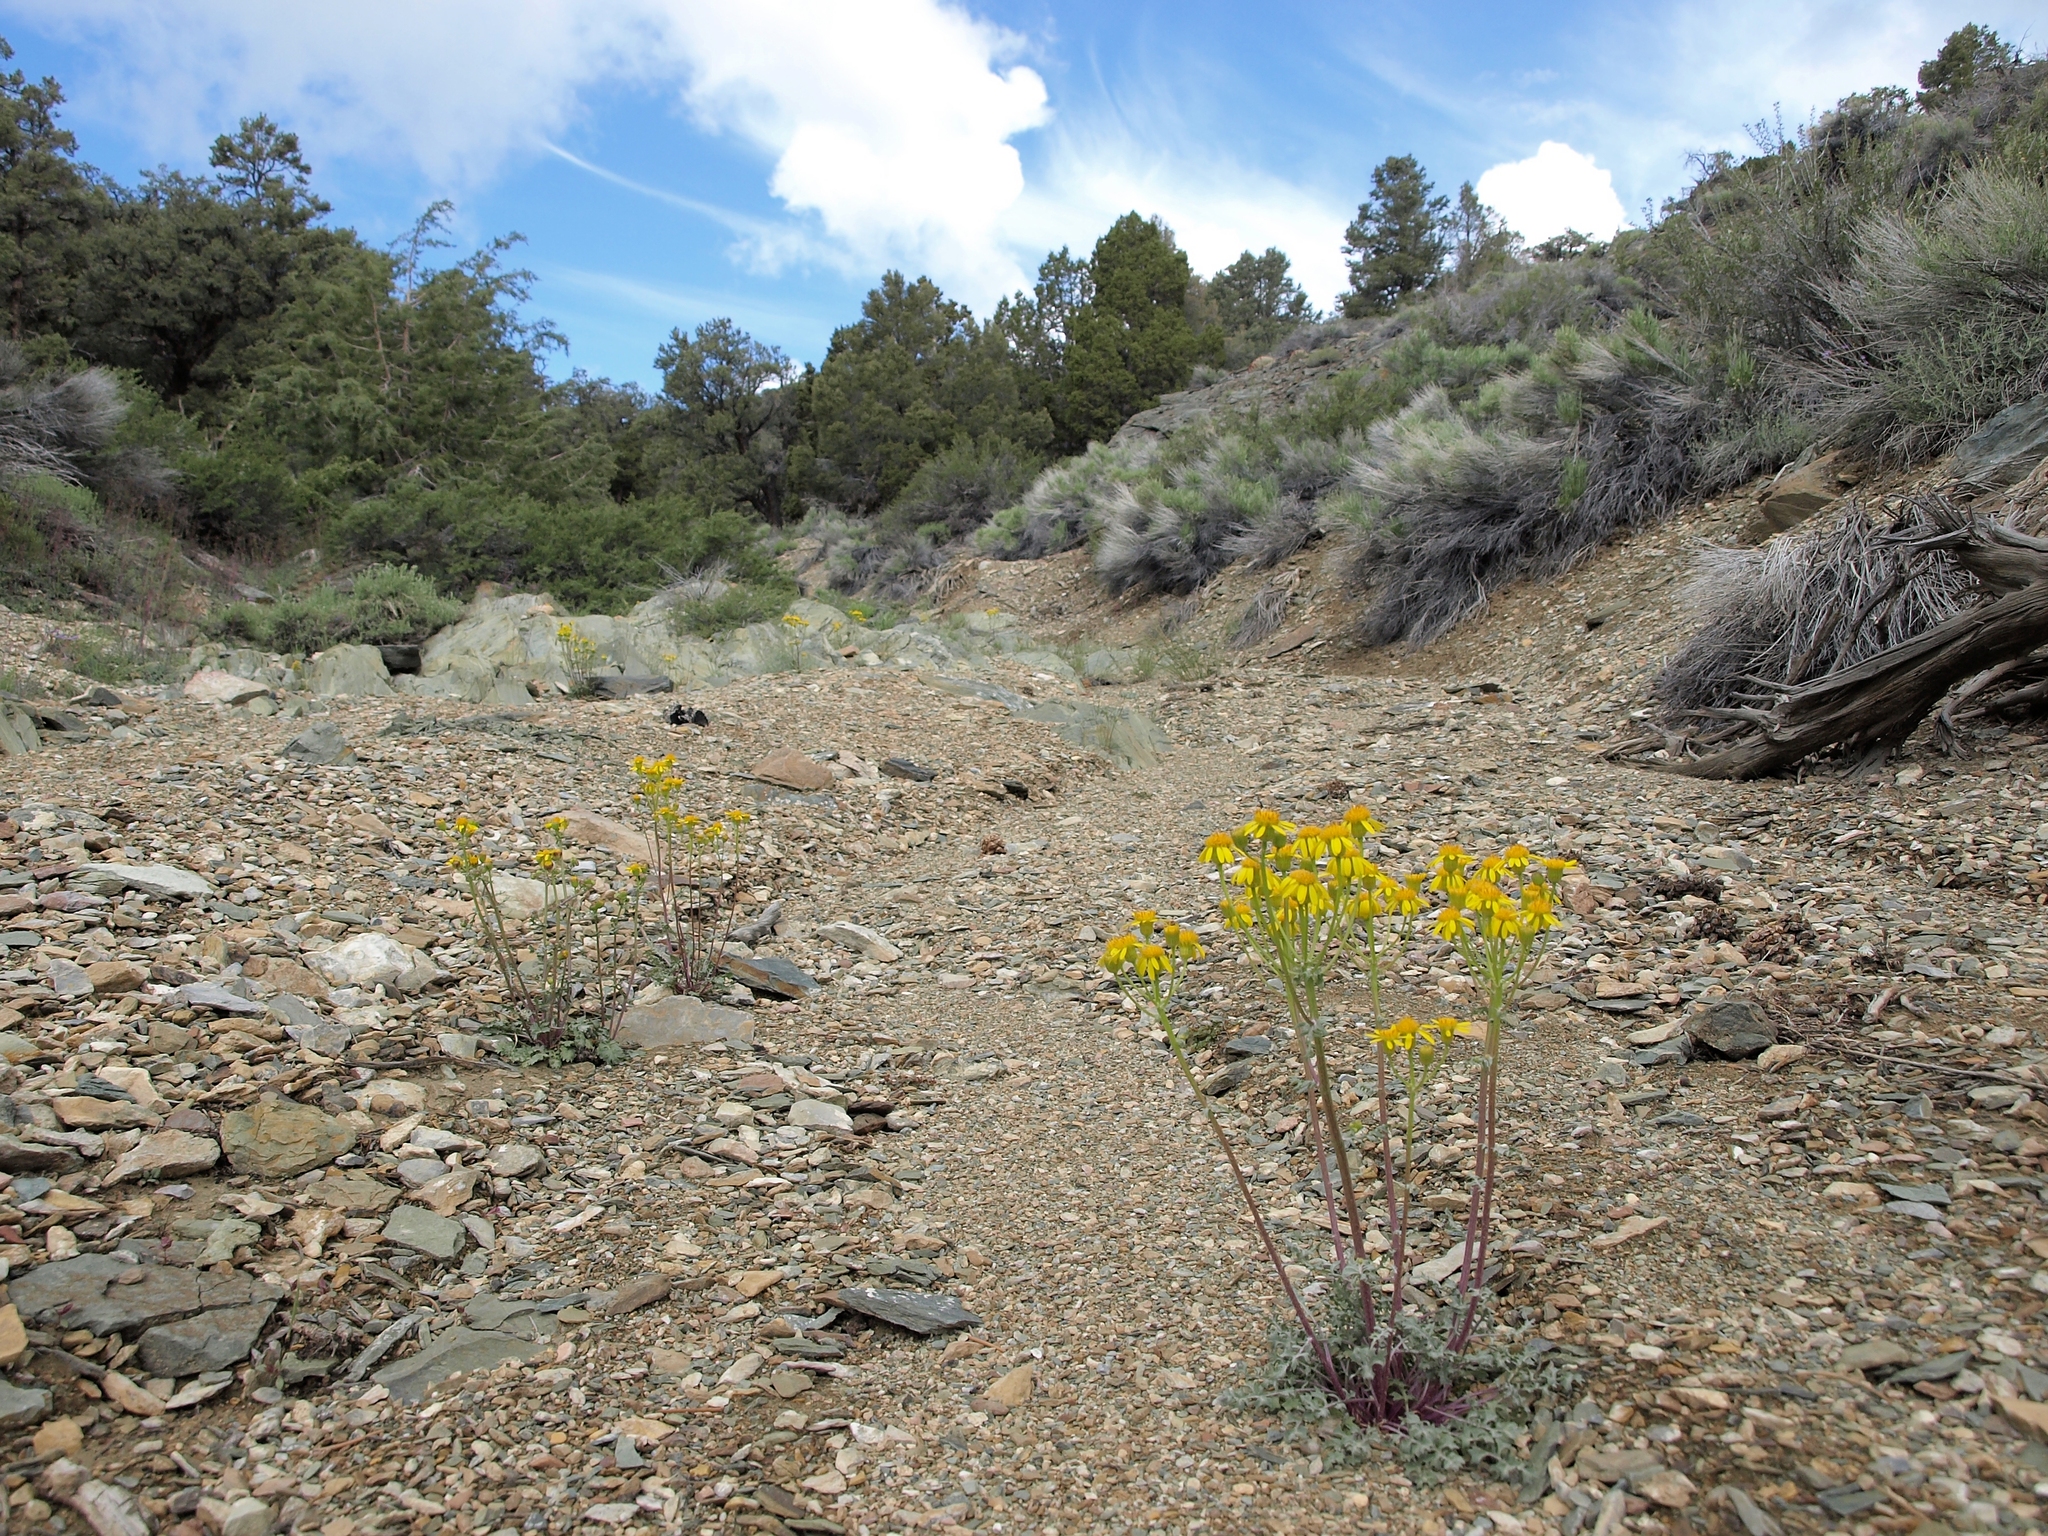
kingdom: Plantae
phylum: Tracheophyta
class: Magnoliopsida
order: Asterales
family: Asteraceae
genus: Packera
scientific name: Packera multilobata
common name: Lobe-leaf groundsel
